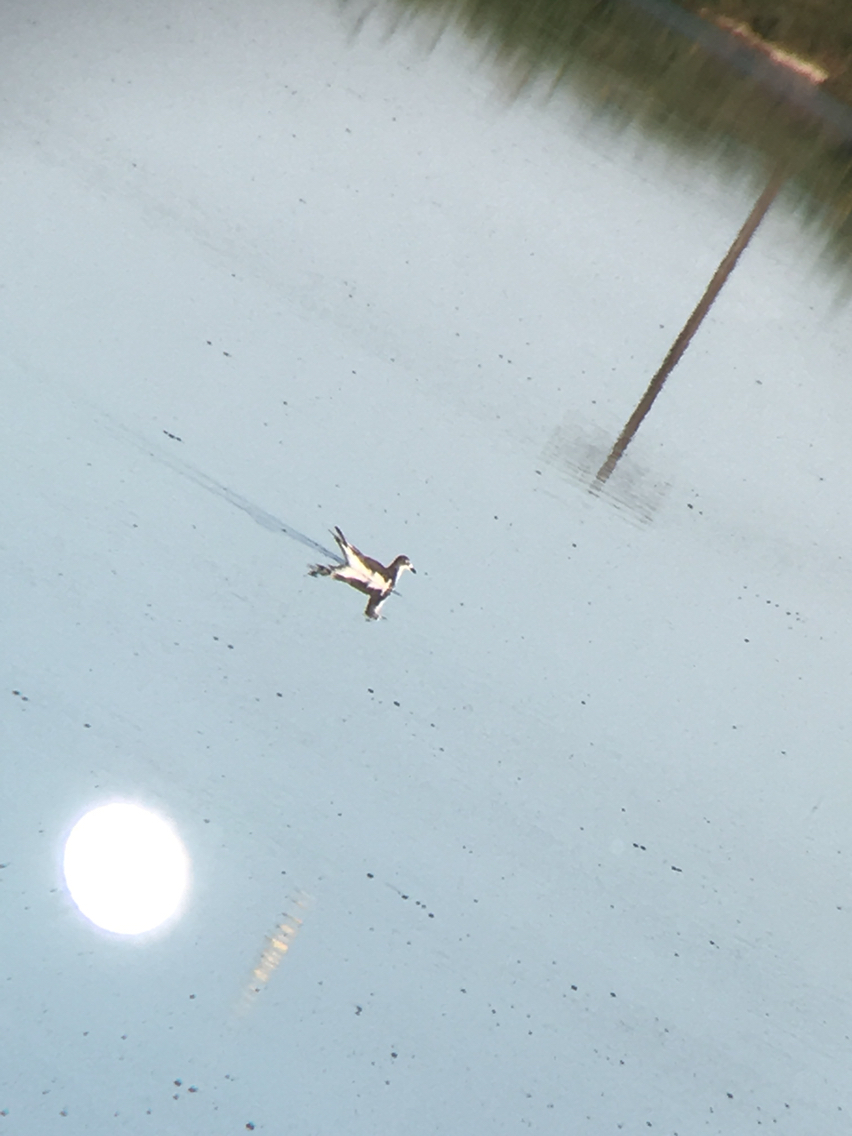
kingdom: Animalia
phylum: Chordata
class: Aves
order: Charadriiformes
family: Laridae
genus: Xema
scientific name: Xema sabini
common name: Sabine's gull
